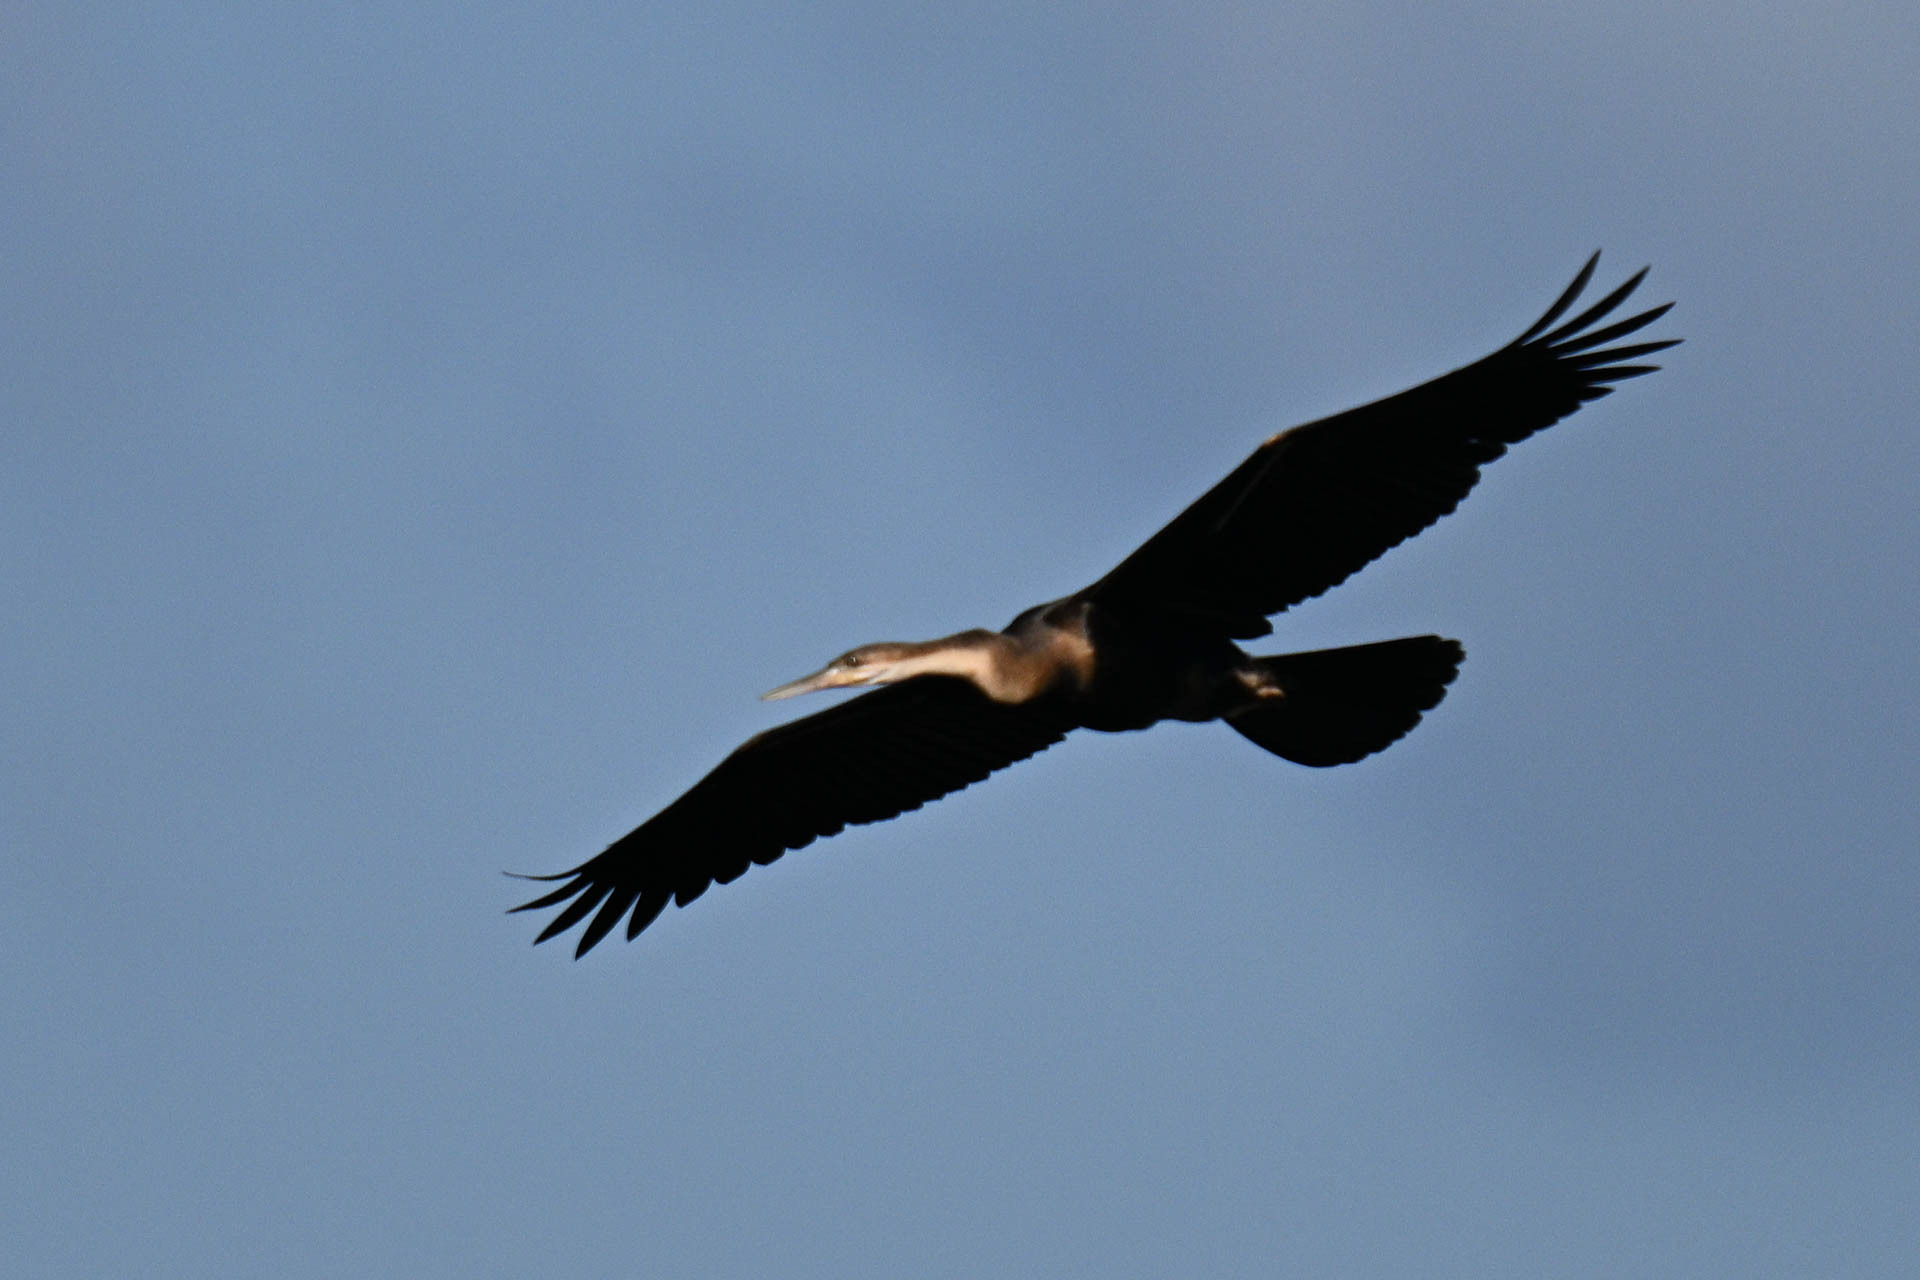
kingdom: Animalia
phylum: Chordata
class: Aves
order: Suliformes
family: Anhingidae
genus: Anhinga
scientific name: Anhinga rufa
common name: African darter
